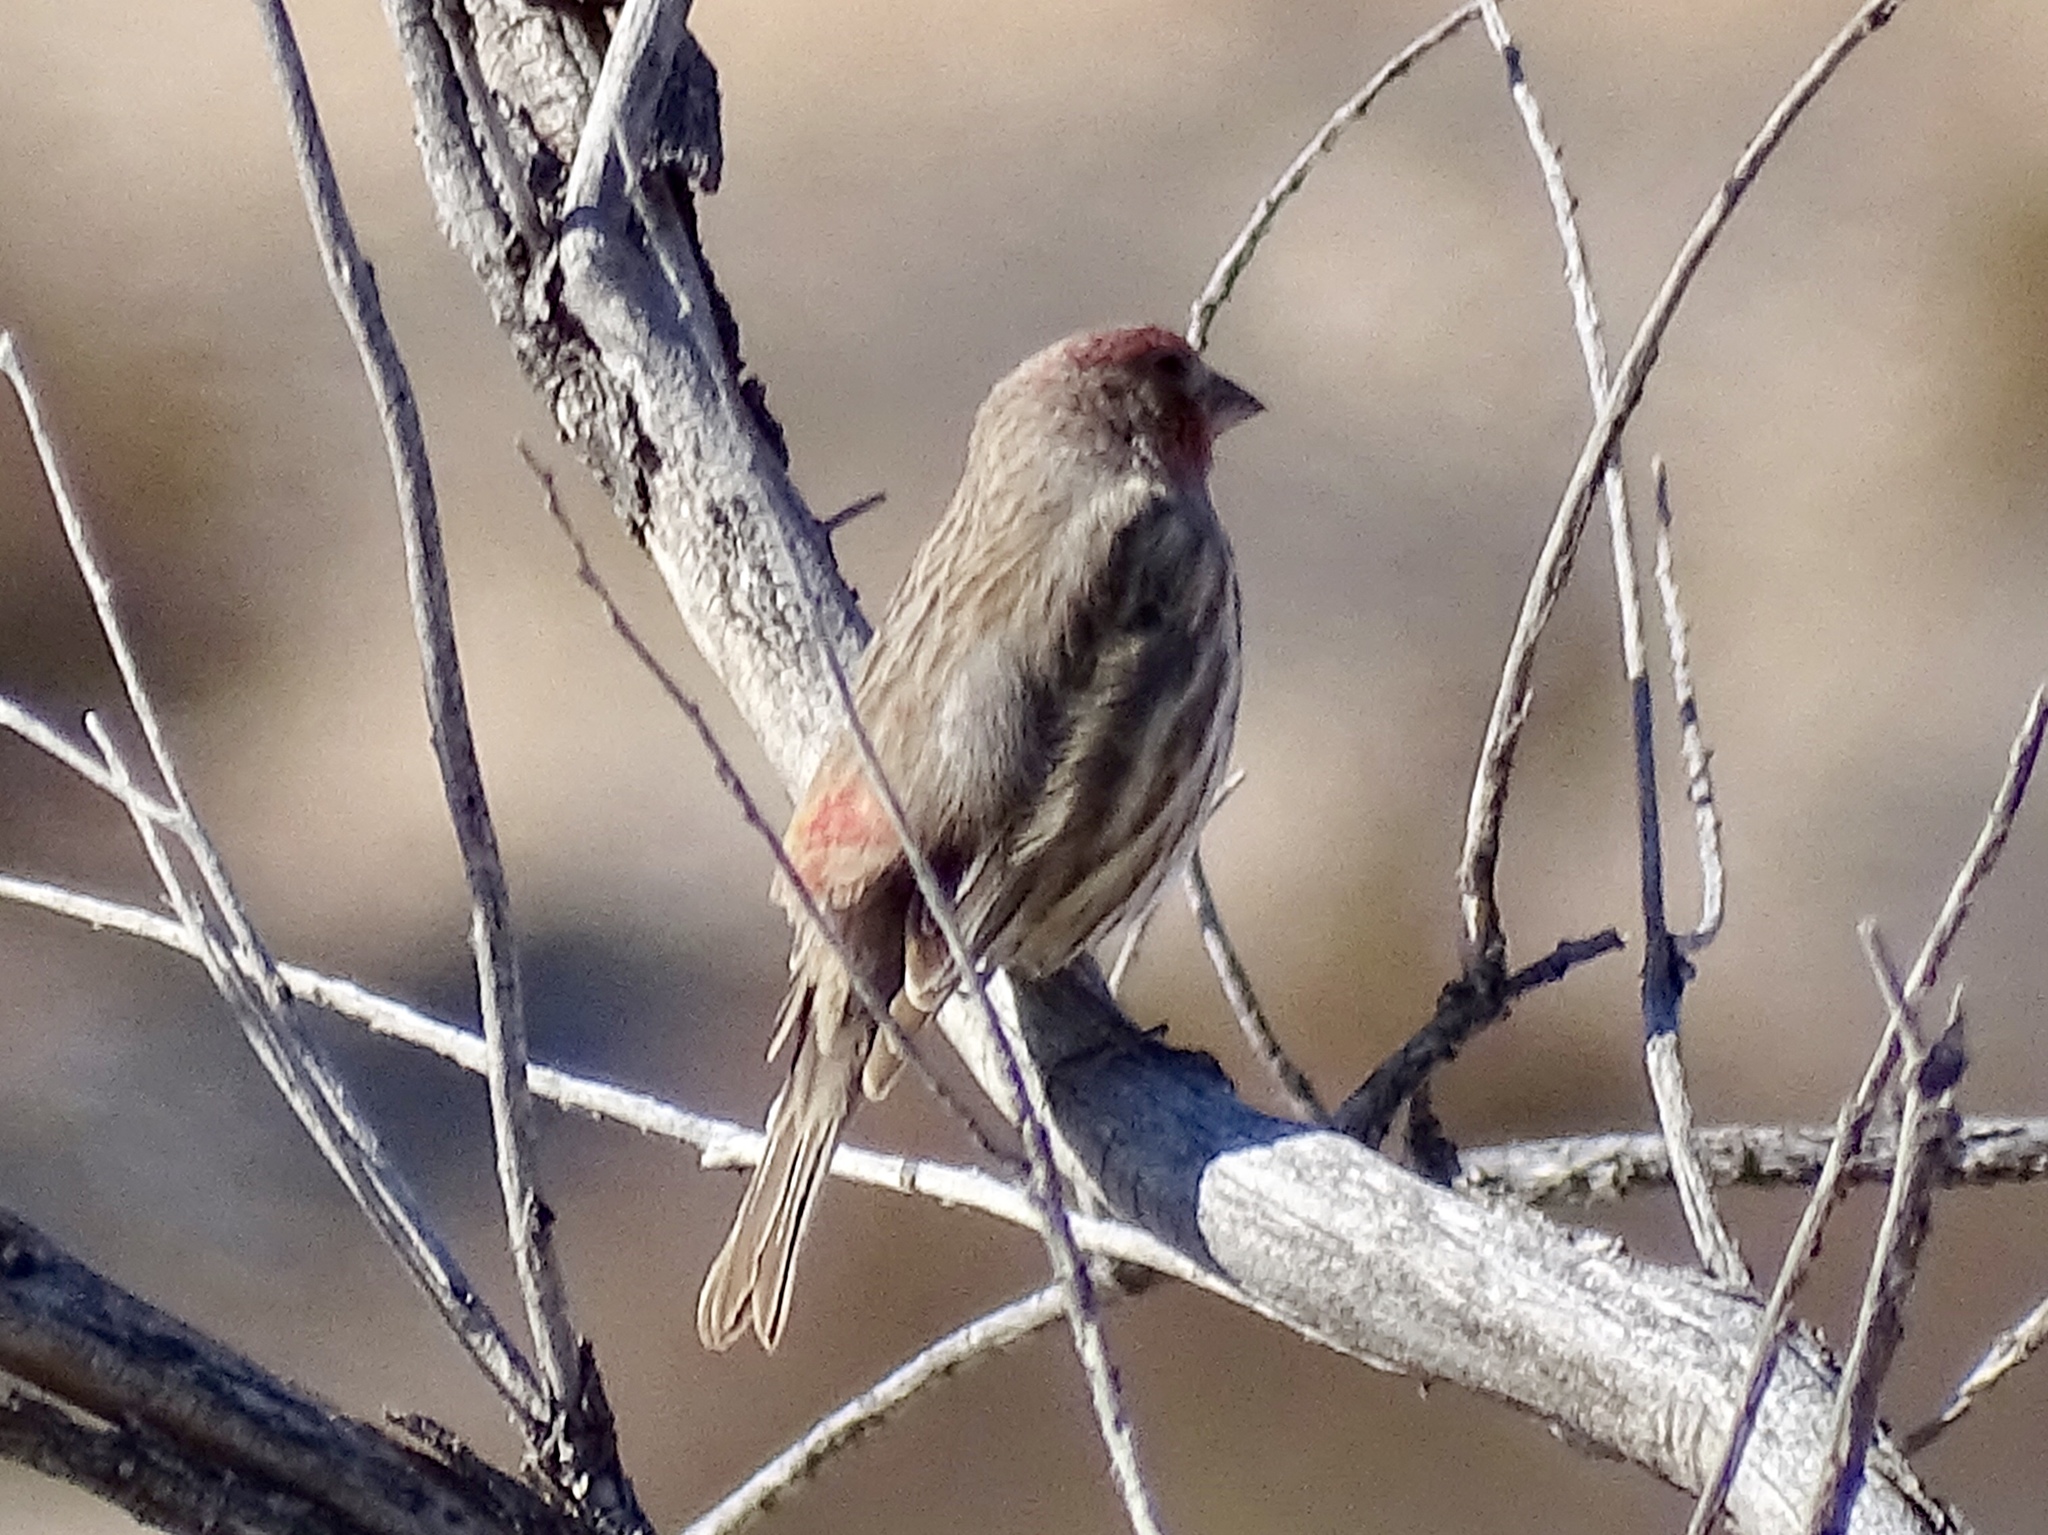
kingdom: Animalia
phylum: Chordata
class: Aves
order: Passeriformes
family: Fringillidae
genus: Haemorhous
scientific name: Haemorhous mexicanus
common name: House finch
